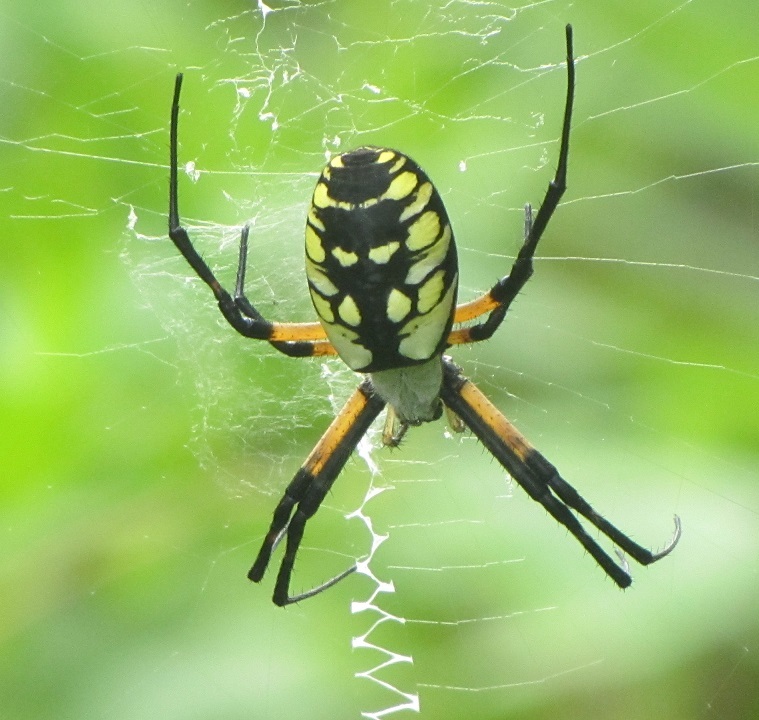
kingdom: Animalia
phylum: Arthropoda
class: Arachnida
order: Araneae
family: Araneidae
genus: Argiope
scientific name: Argiope aurantia
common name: Orb weavers
